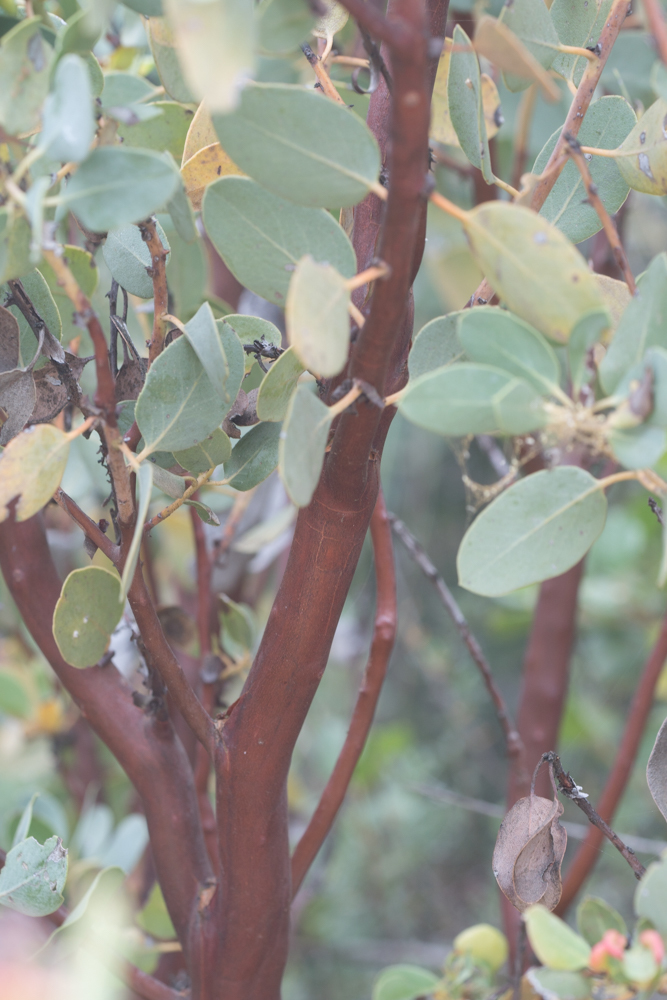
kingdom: Plantae
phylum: Tracheophyta
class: Magnoliopsida
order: Ericales
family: Ericaceae
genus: Arctostaphylos
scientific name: Arctostaphylos glauca
